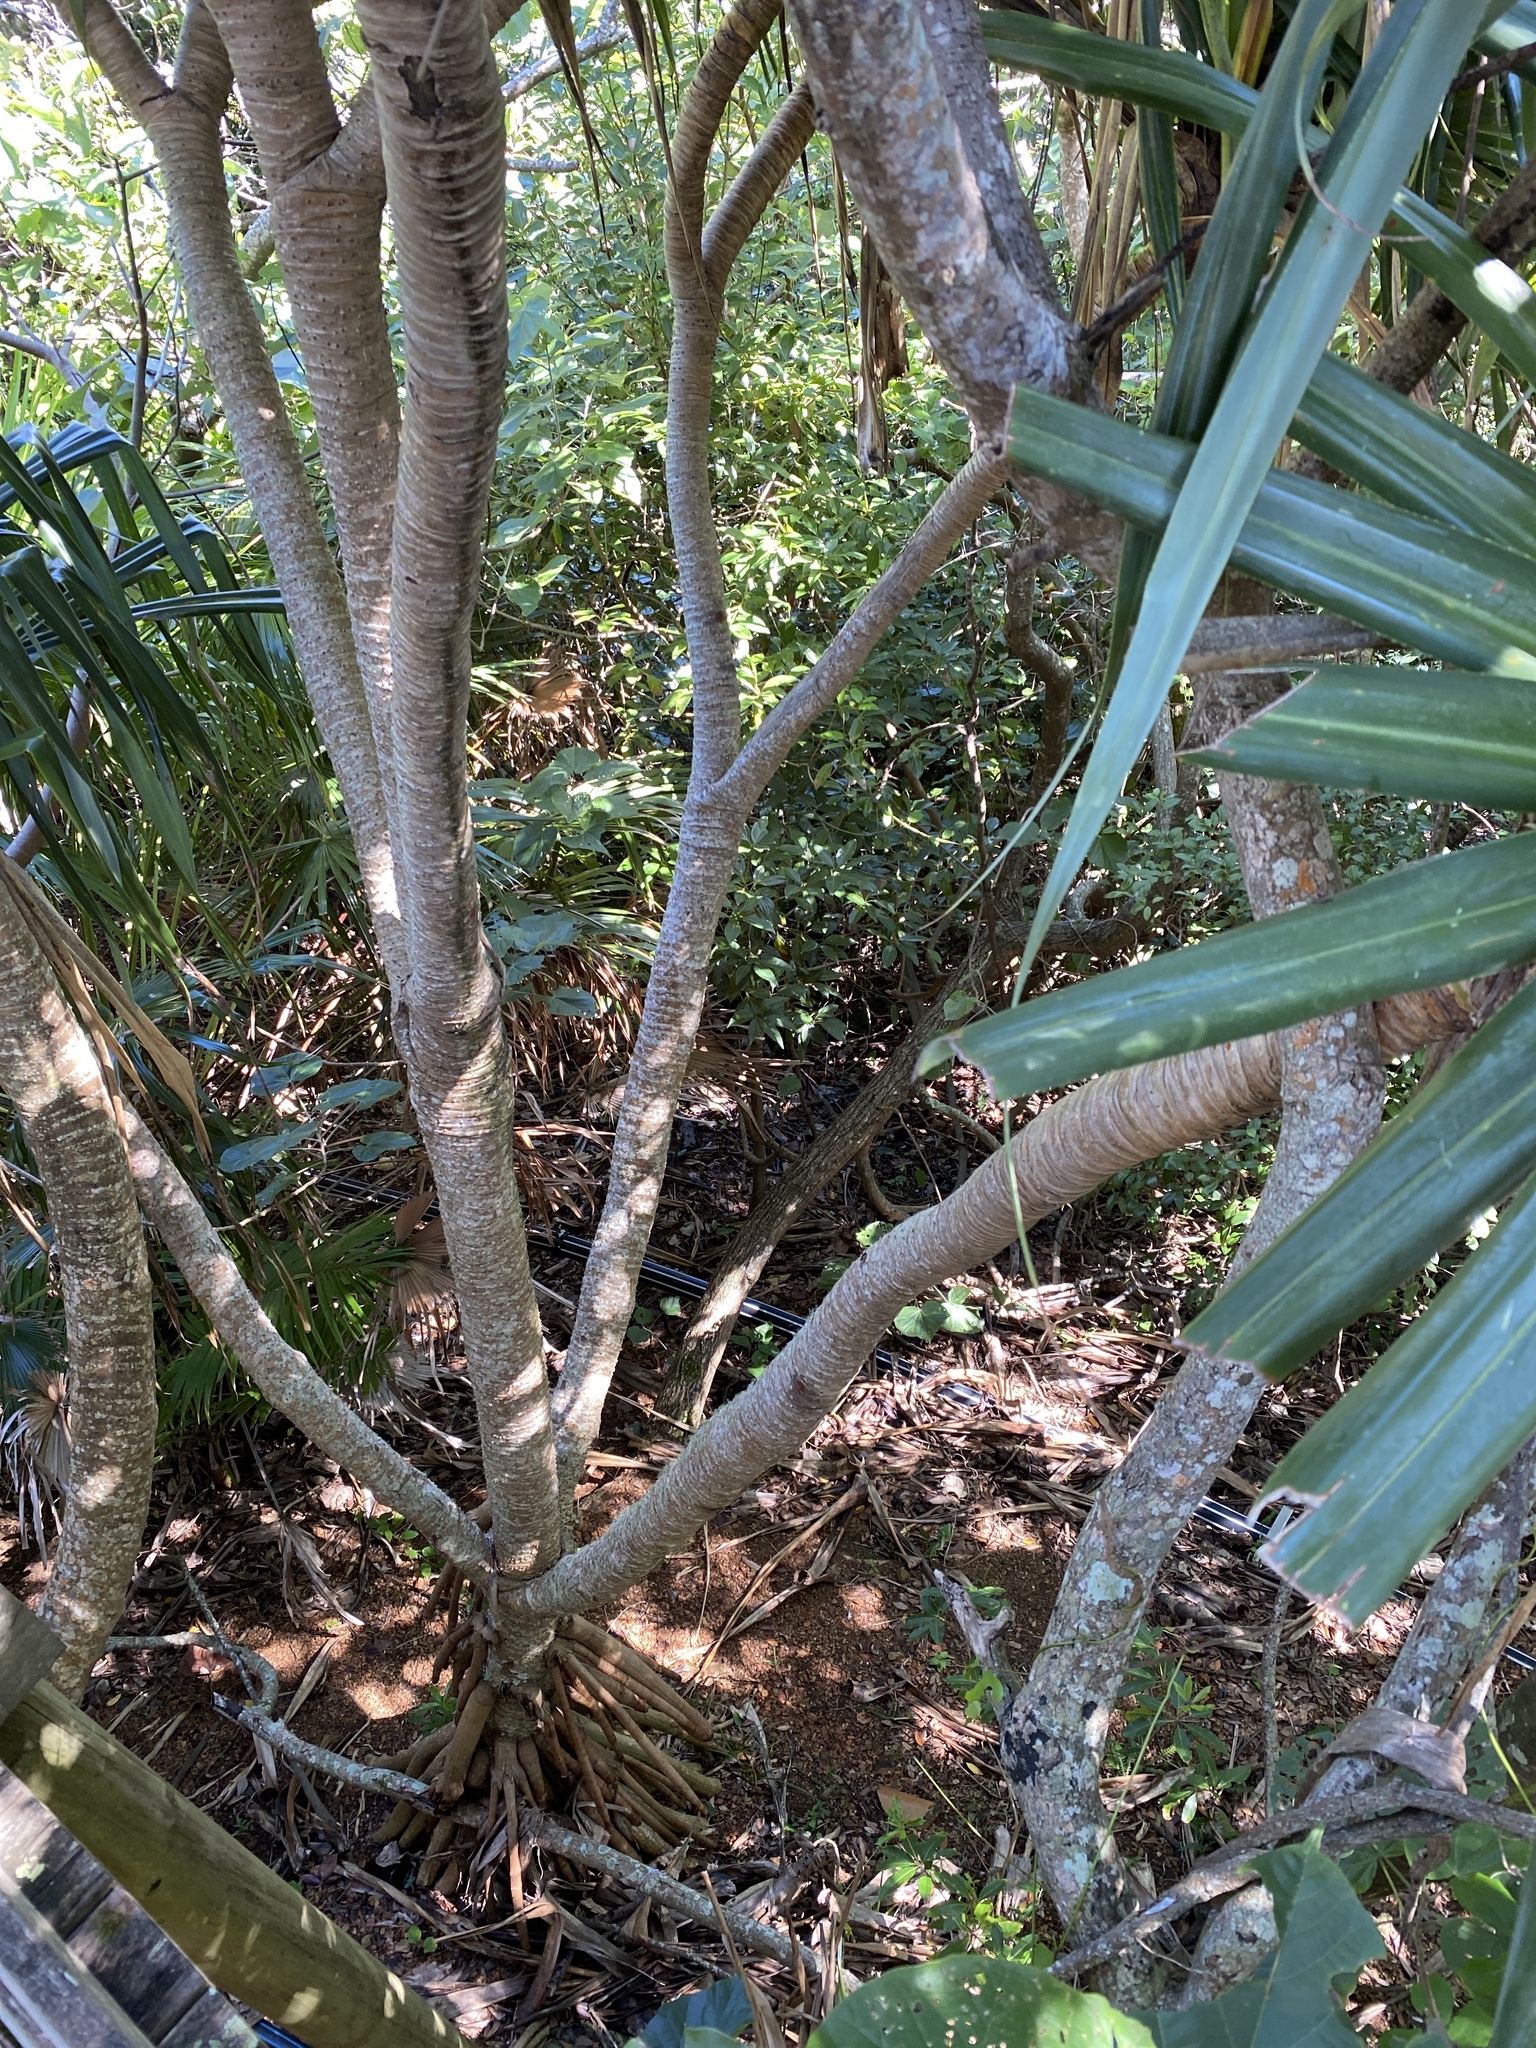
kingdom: Plantae
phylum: Tracheophyta
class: Liliopsida
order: Pandanales
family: Pandanaceae
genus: Pandanus
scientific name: Pandanus tectorius
